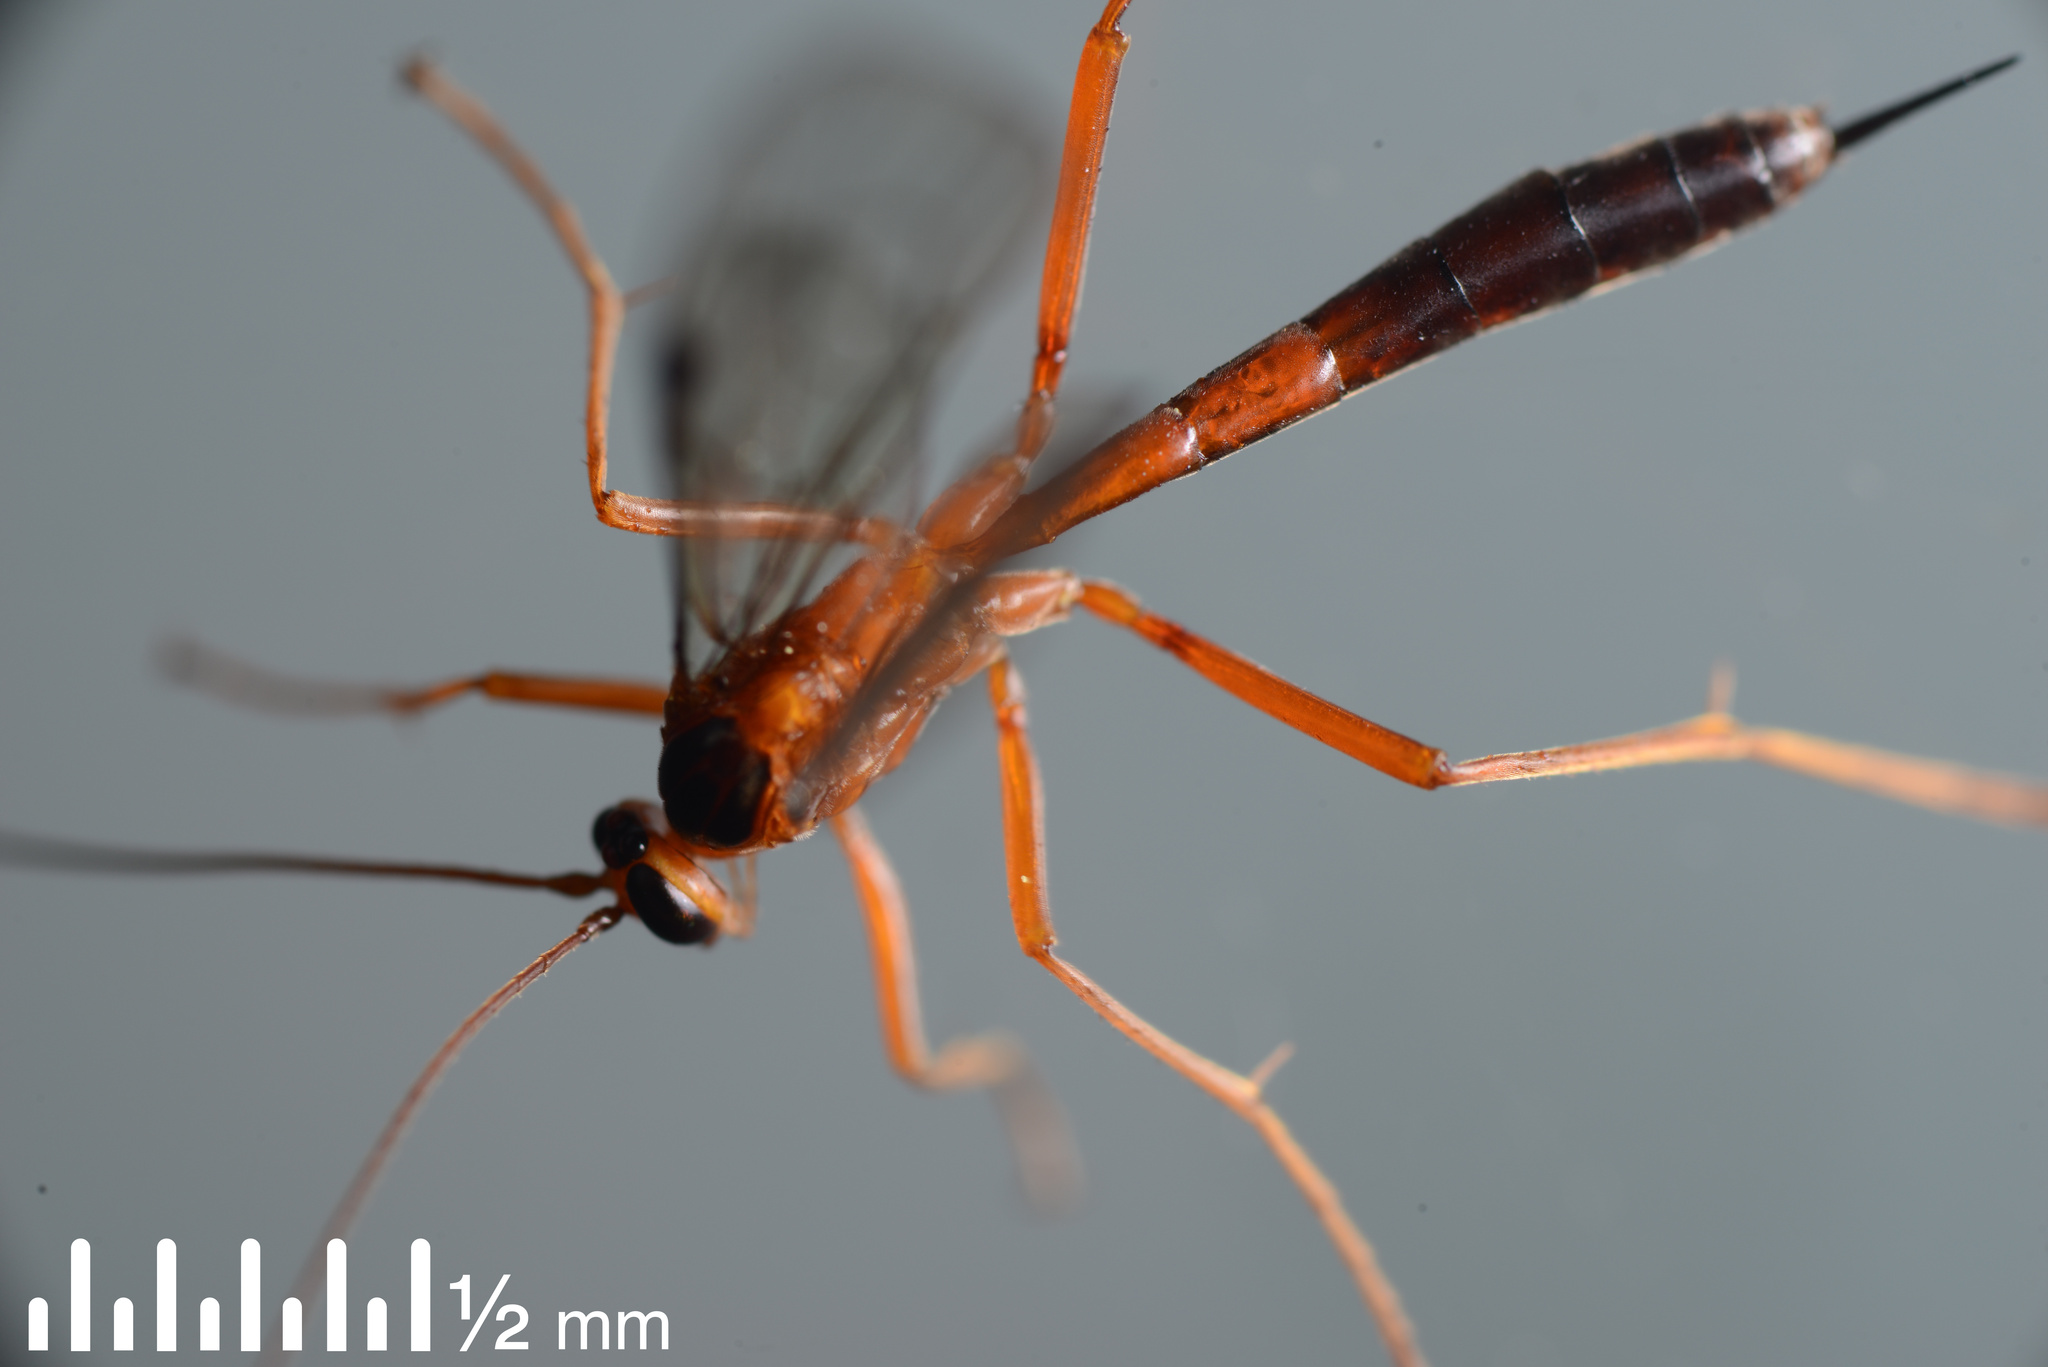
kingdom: Animalia
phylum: Arthropoda
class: Insecta
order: Hymenoptera
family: Ichneumonidae
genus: Netelia
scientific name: Netelia ephippiata
